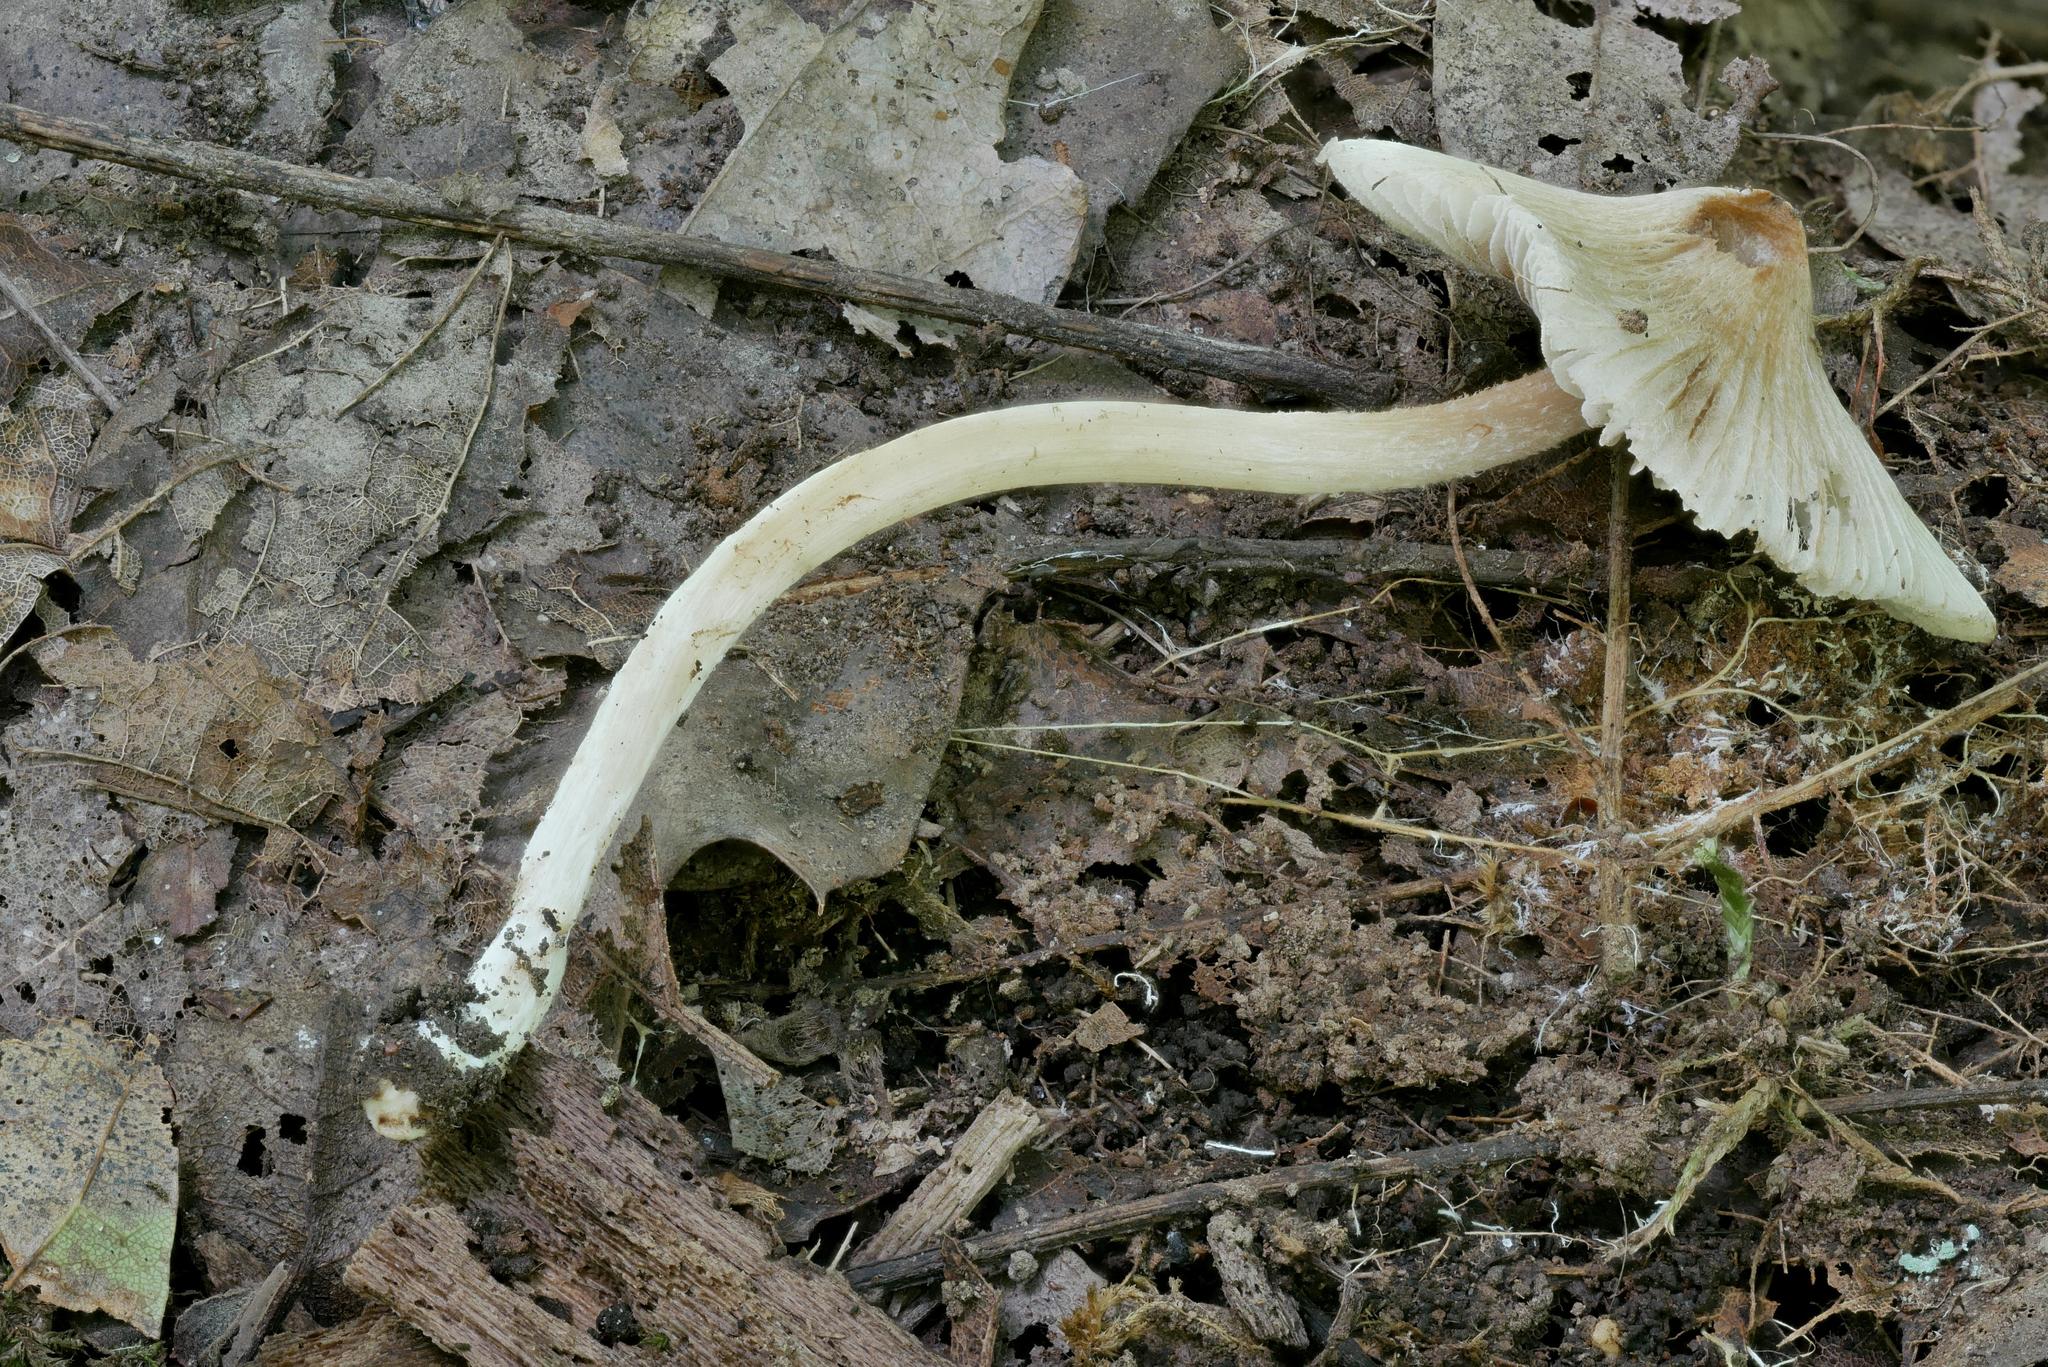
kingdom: Fungi
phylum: Basidiomycota
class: Agaricomycetes
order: Agaricales
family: Inocybaceae
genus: Pseudosperma
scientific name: Pseudosperma friabile
